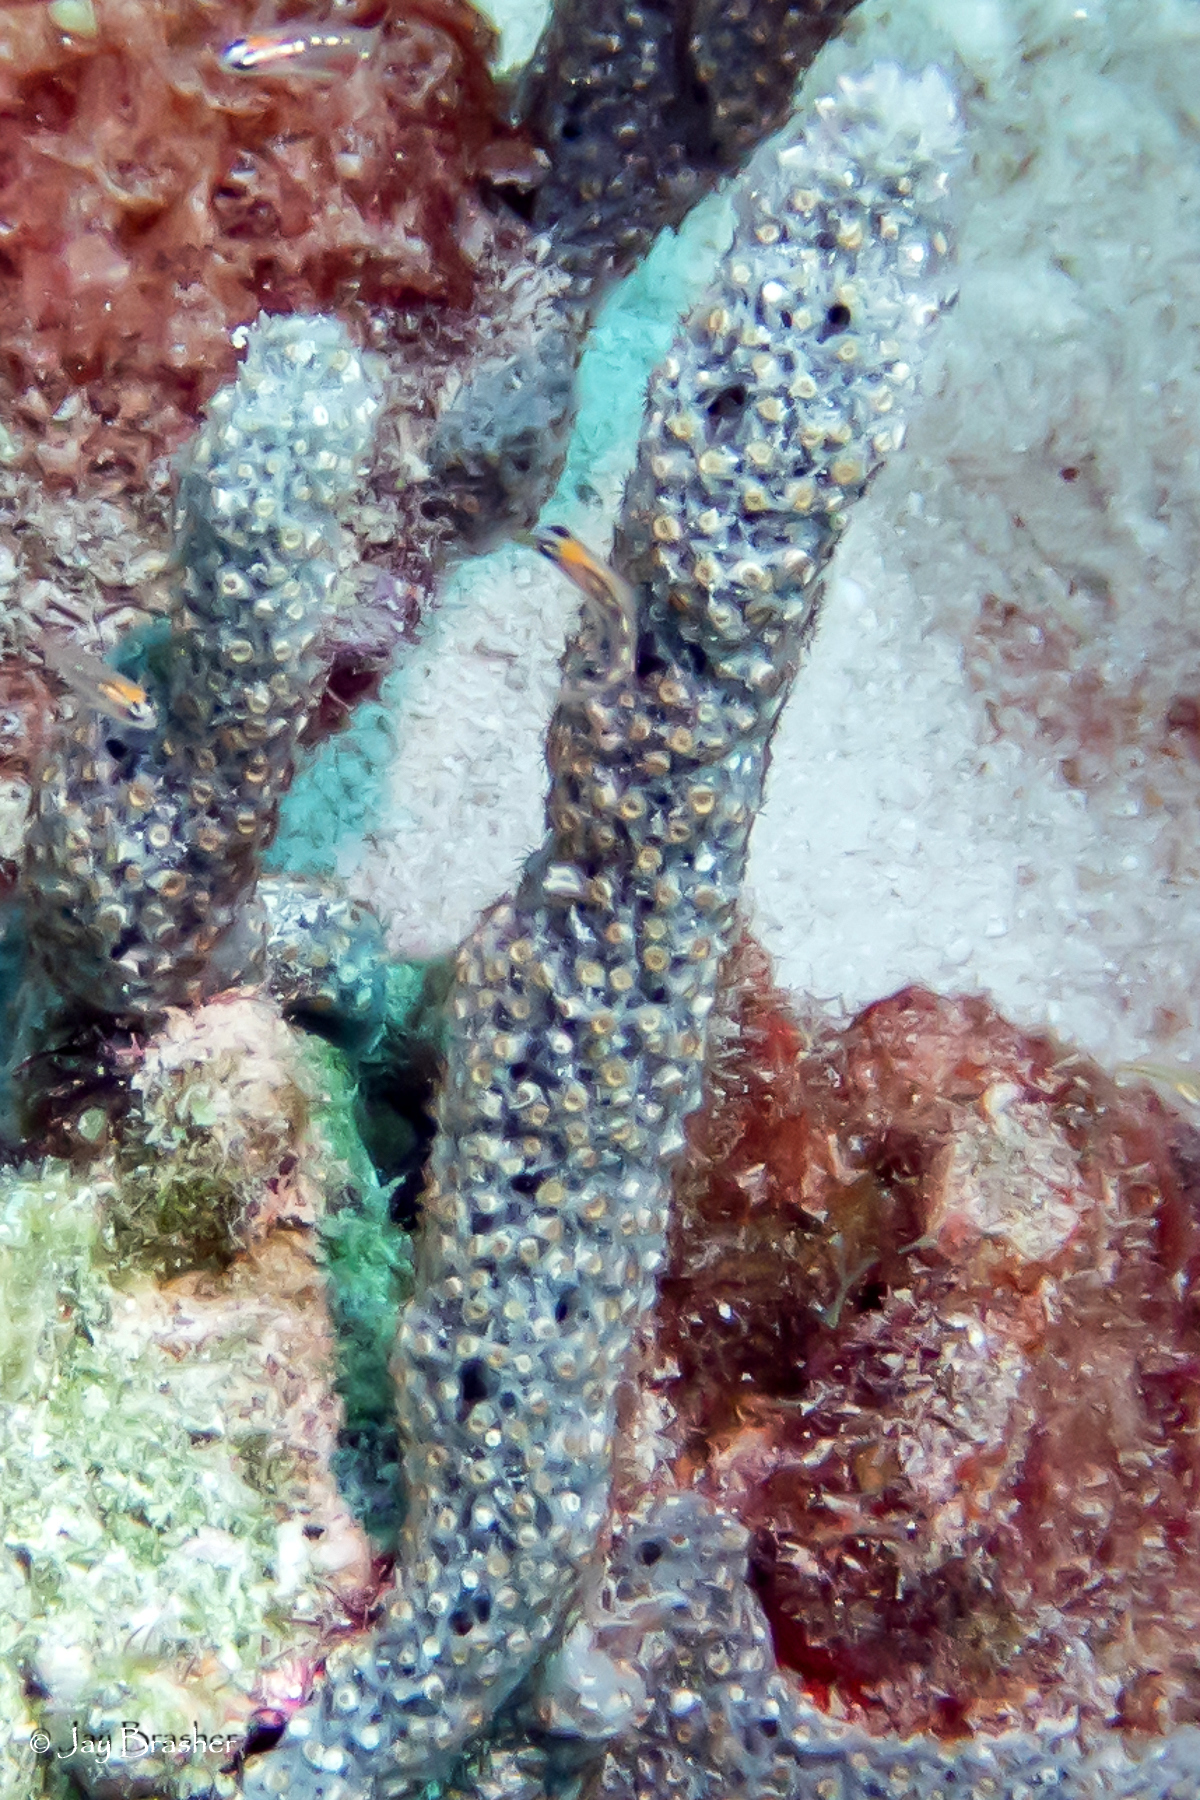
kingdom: Animalia
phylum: Cnidaria
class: Anthozoa
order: Zoantharia
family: Parazoanthidae
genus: Umimayanthus
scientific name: Umimayanthus parasiticus
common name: Sponge zoanthid
